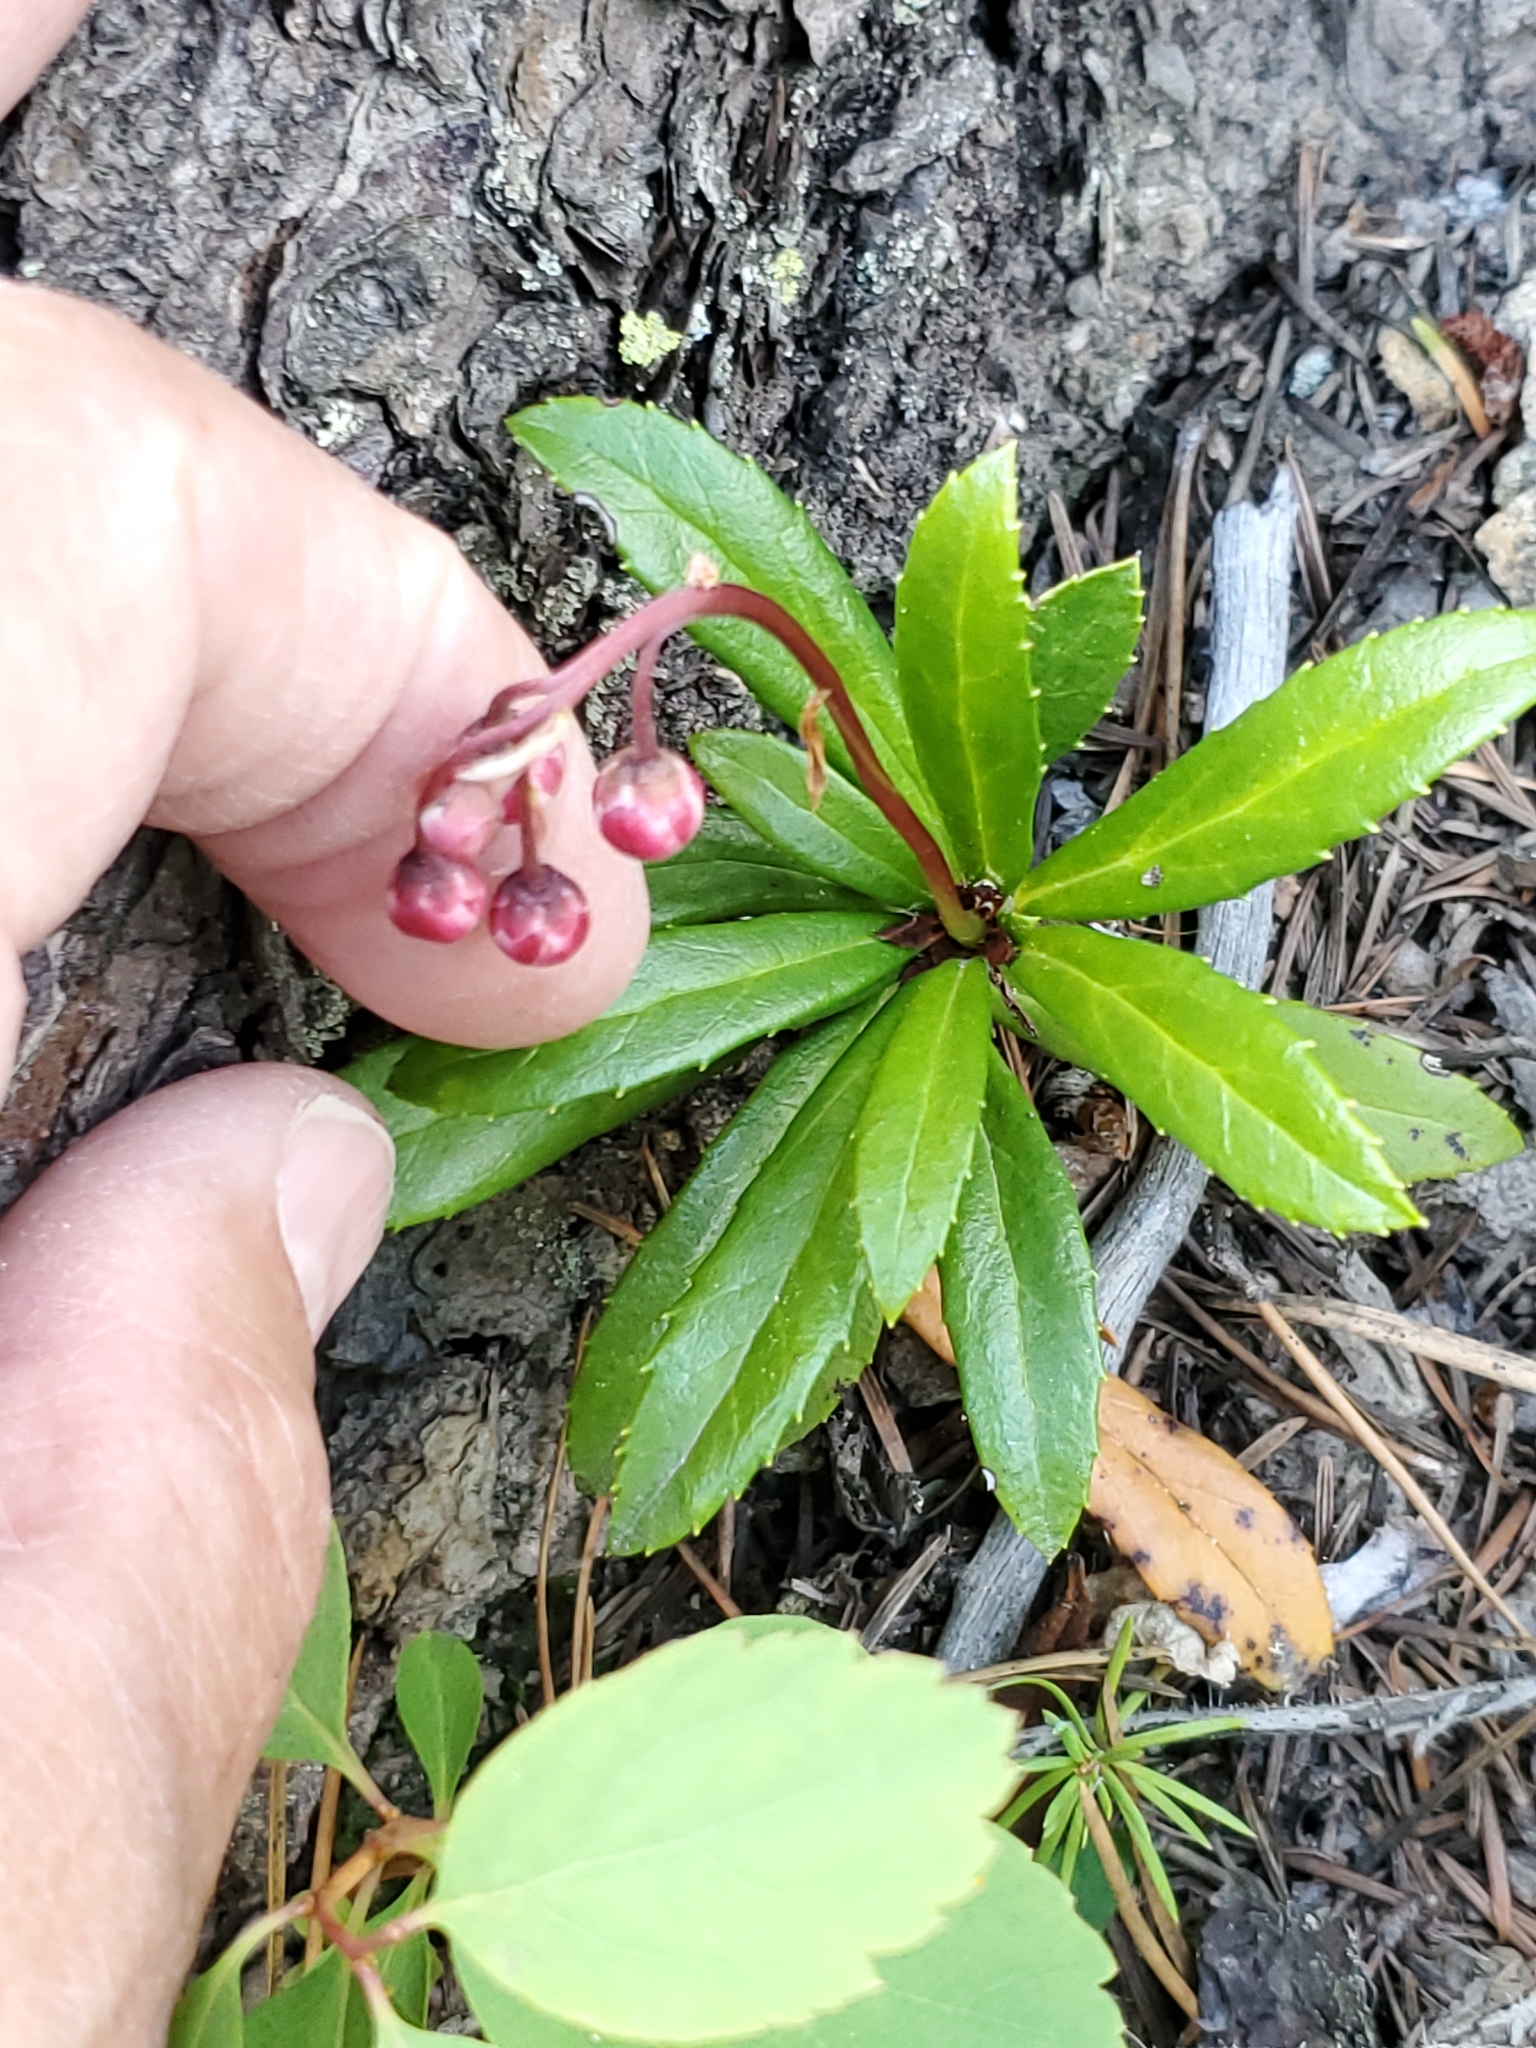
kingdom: Plantae
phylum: Tracheophyta
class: Magnoliopsida
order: Ericales
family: Ericaceae
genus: Chimaphila
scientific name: Chimaphila umbellata
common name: Pipsissewa
